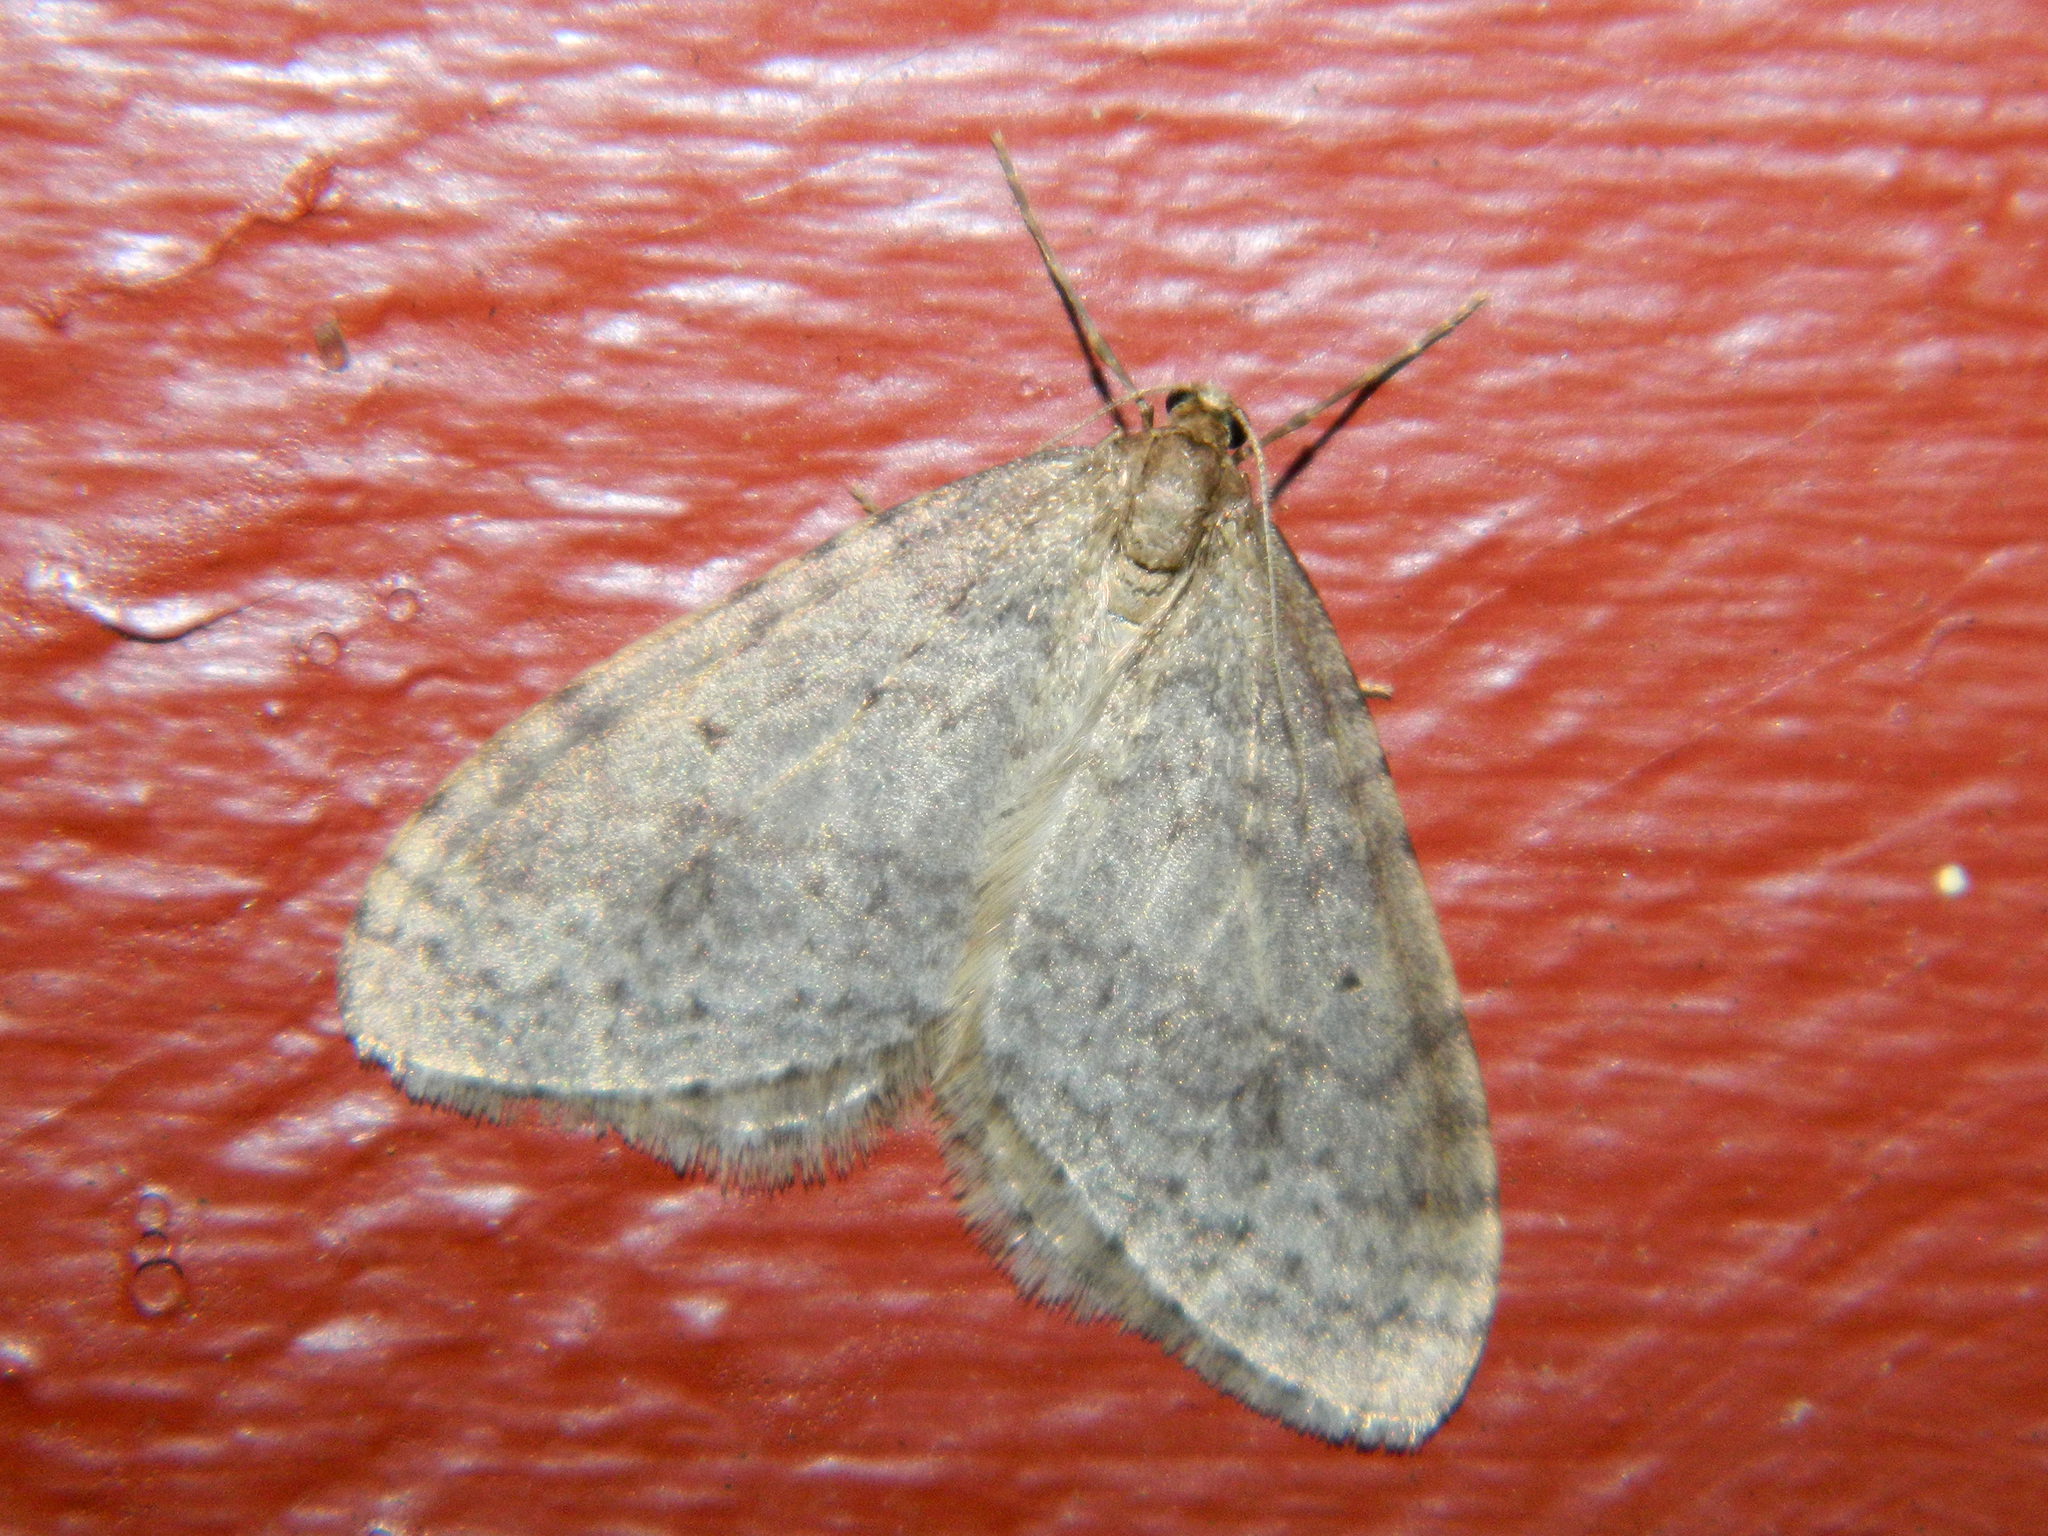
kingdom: Animalia
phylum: Arthropoda
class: Insecta
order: Lepidoptera
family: Geometridae
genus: Operophtera
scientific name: Operophtera bruceata
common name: Bruce spanworm
